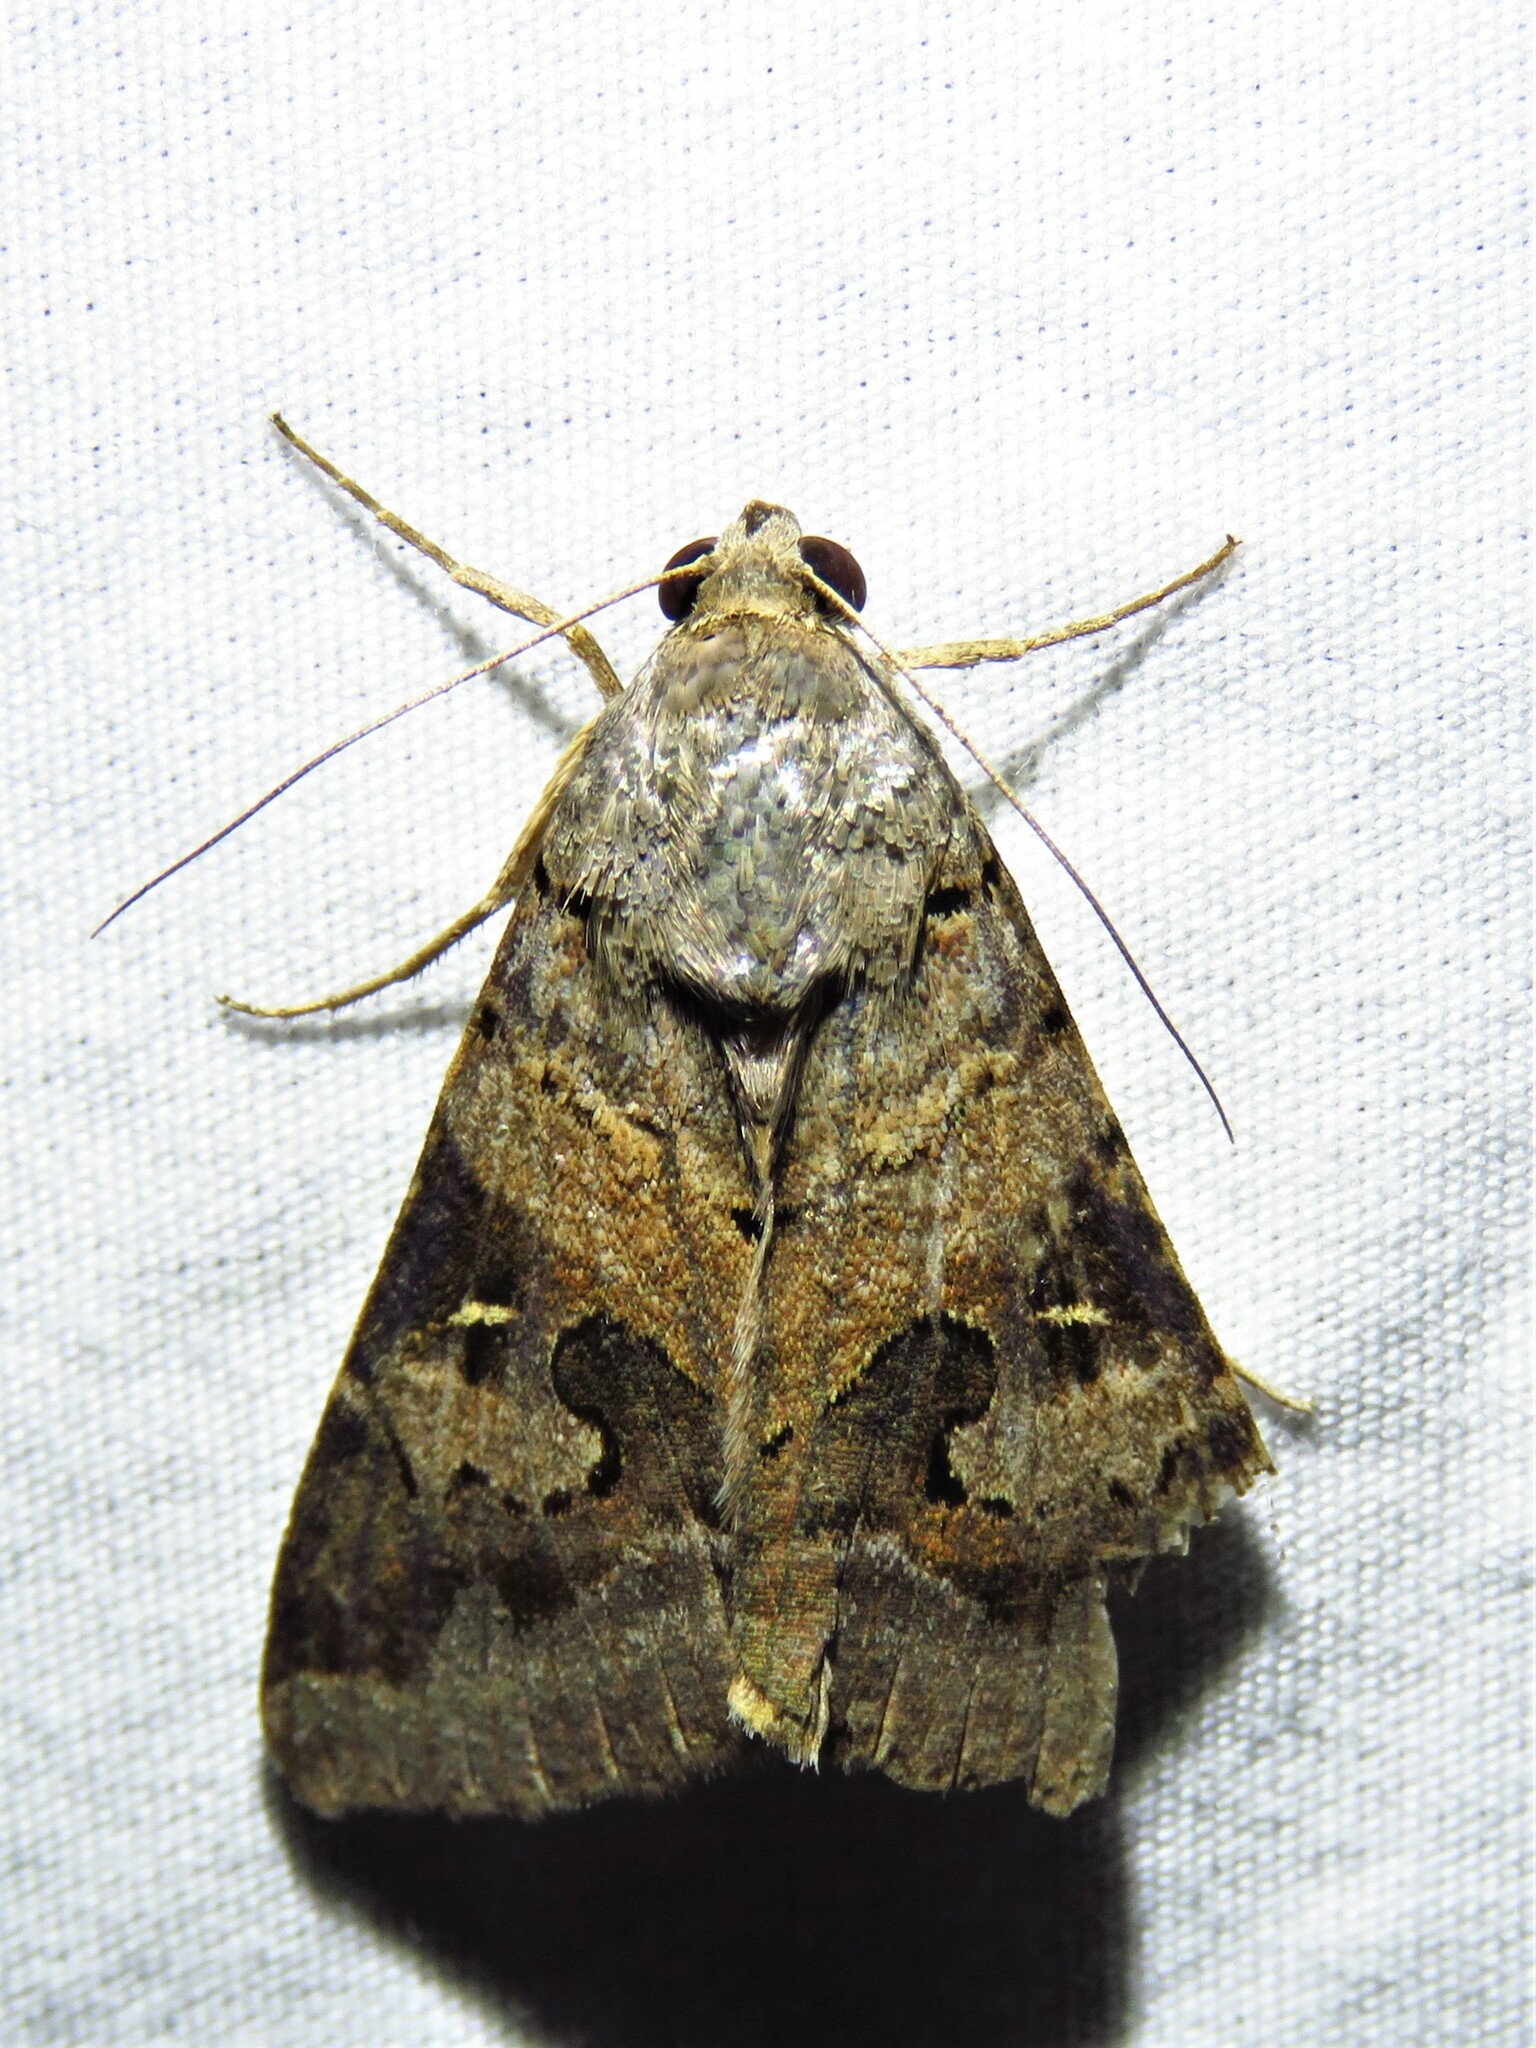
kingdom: Animalia
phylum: Arthropoda
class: Insecta
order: Lepidoptera
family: Erebidae
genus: Melipotis
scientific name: Melipotis indomita
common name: Moth
